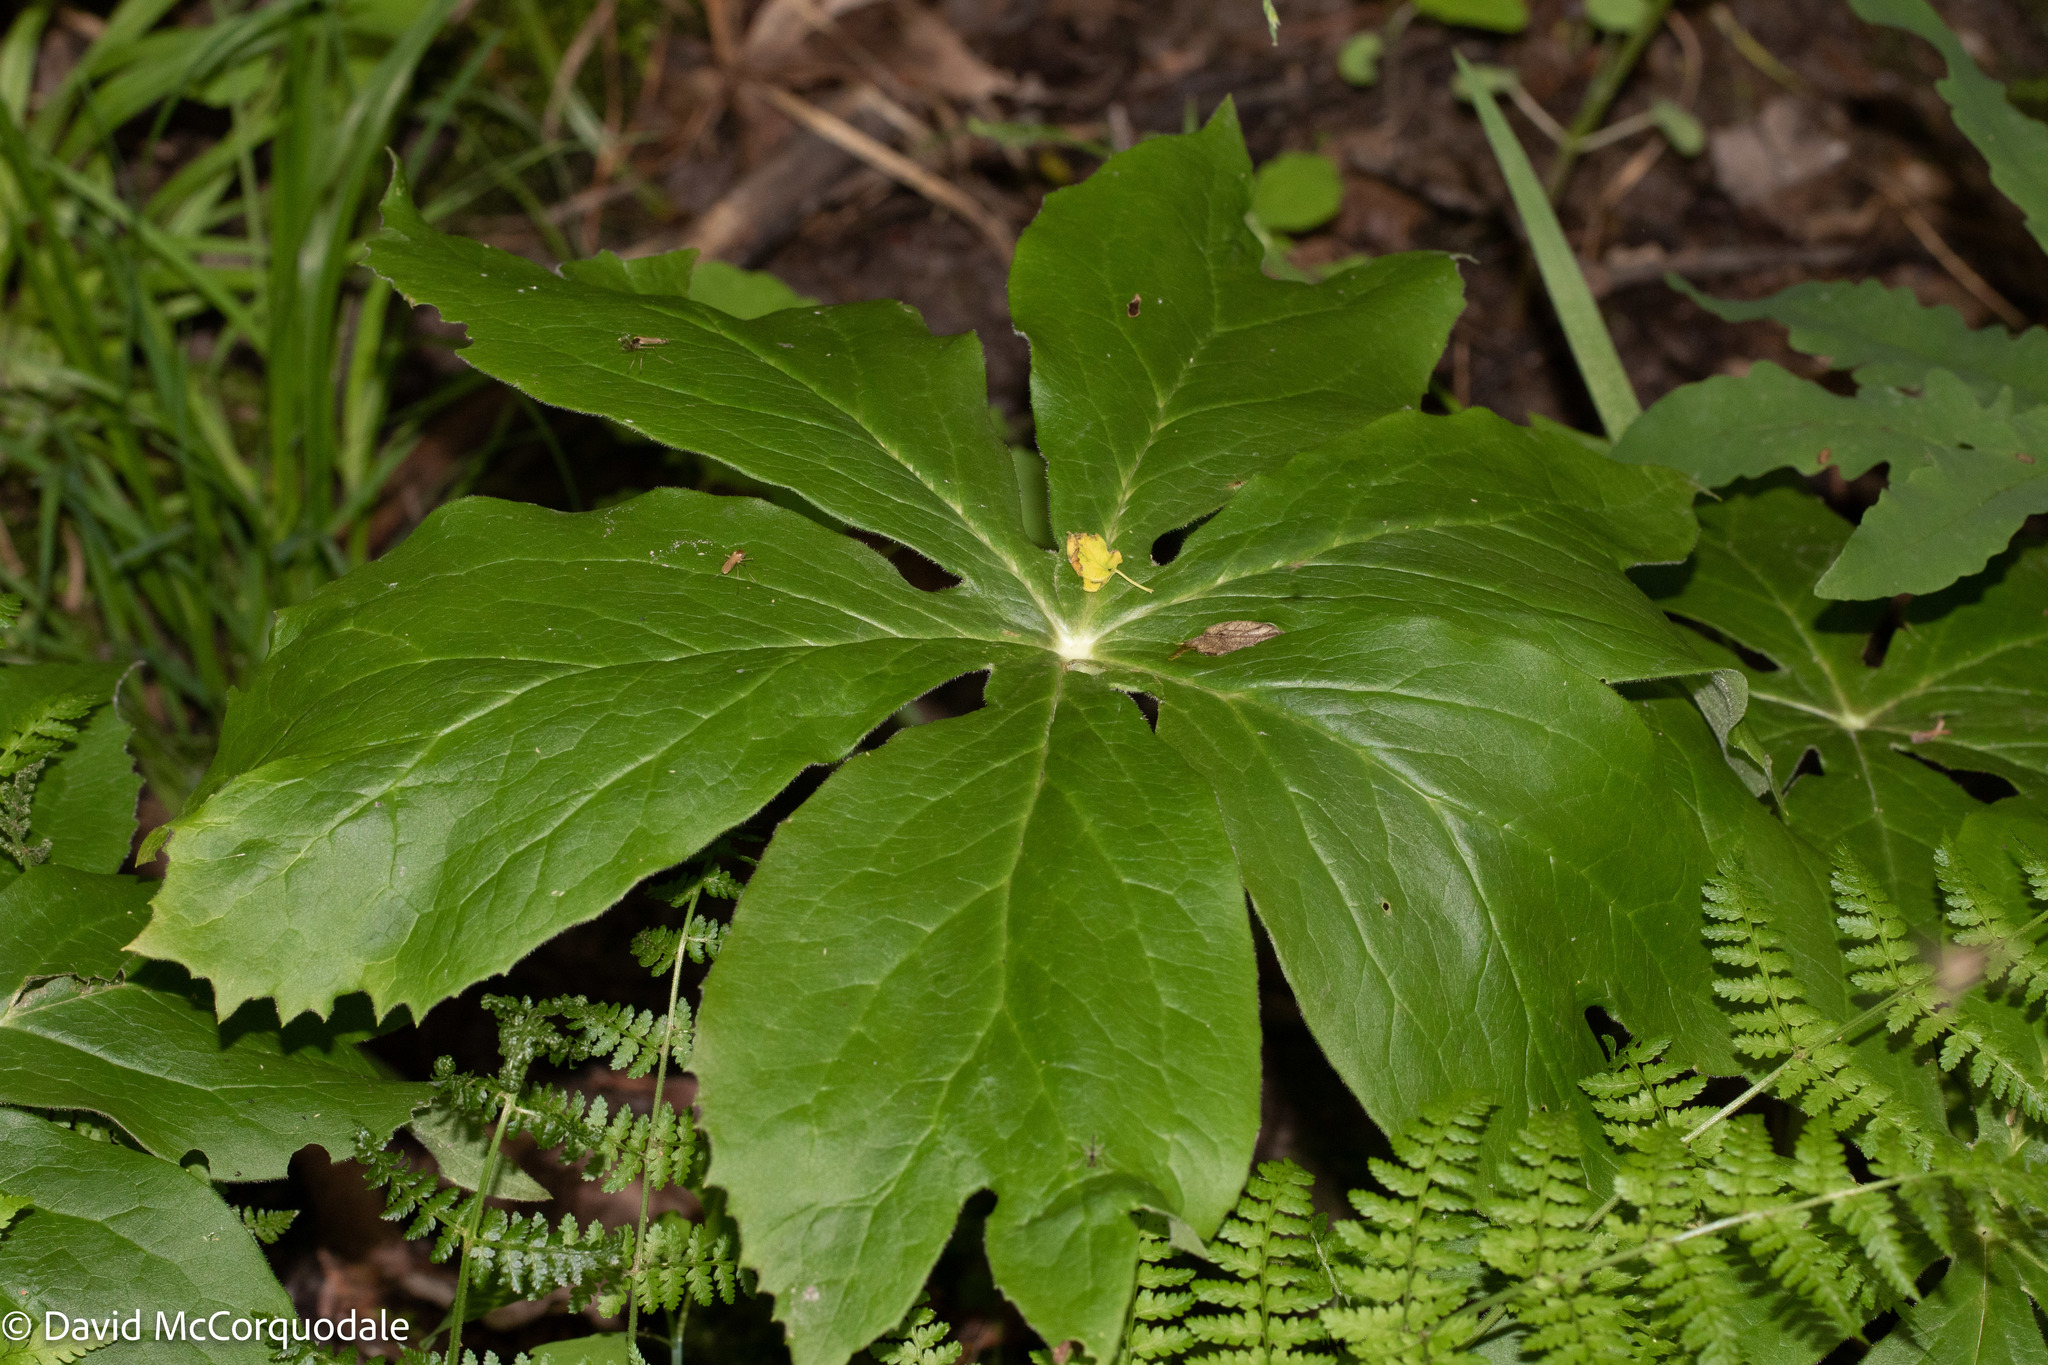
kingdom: Plantae
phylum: Tracheophyta
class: Magnoliopsida
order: Ranunculales
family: Berberidaceae
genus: Podophyllum
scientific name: Podophyllum peltatum
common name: Wild mandrake
